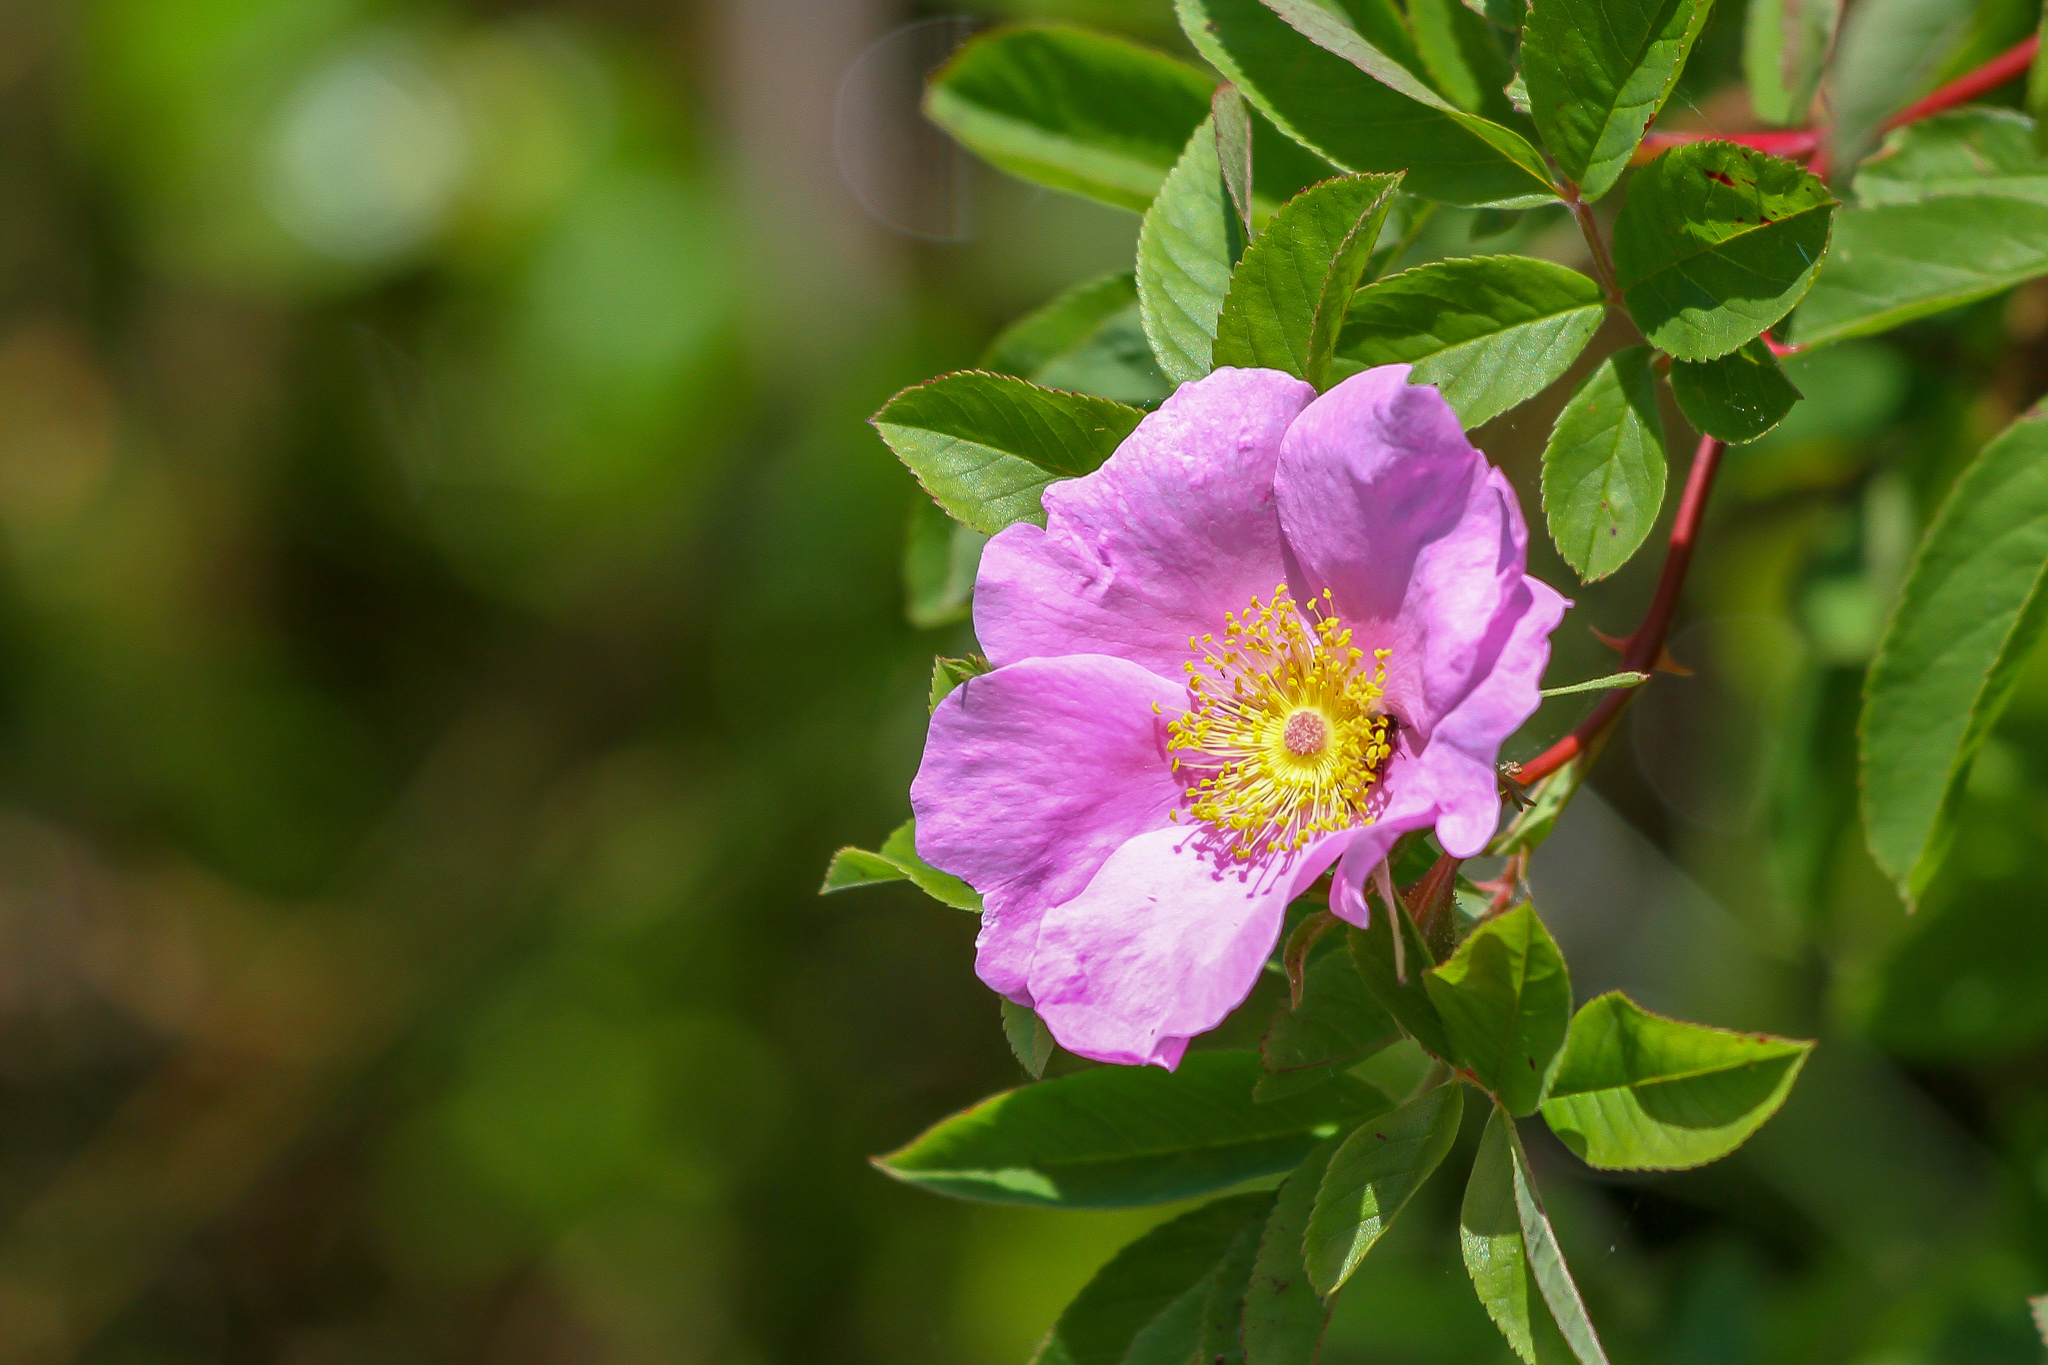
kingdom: Plantae
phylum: Tracheophyta
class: Magnoliopsida
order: Rosales
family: Rosaceae
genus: Rosa
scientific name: Rosa palustris
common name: Swamp rose
